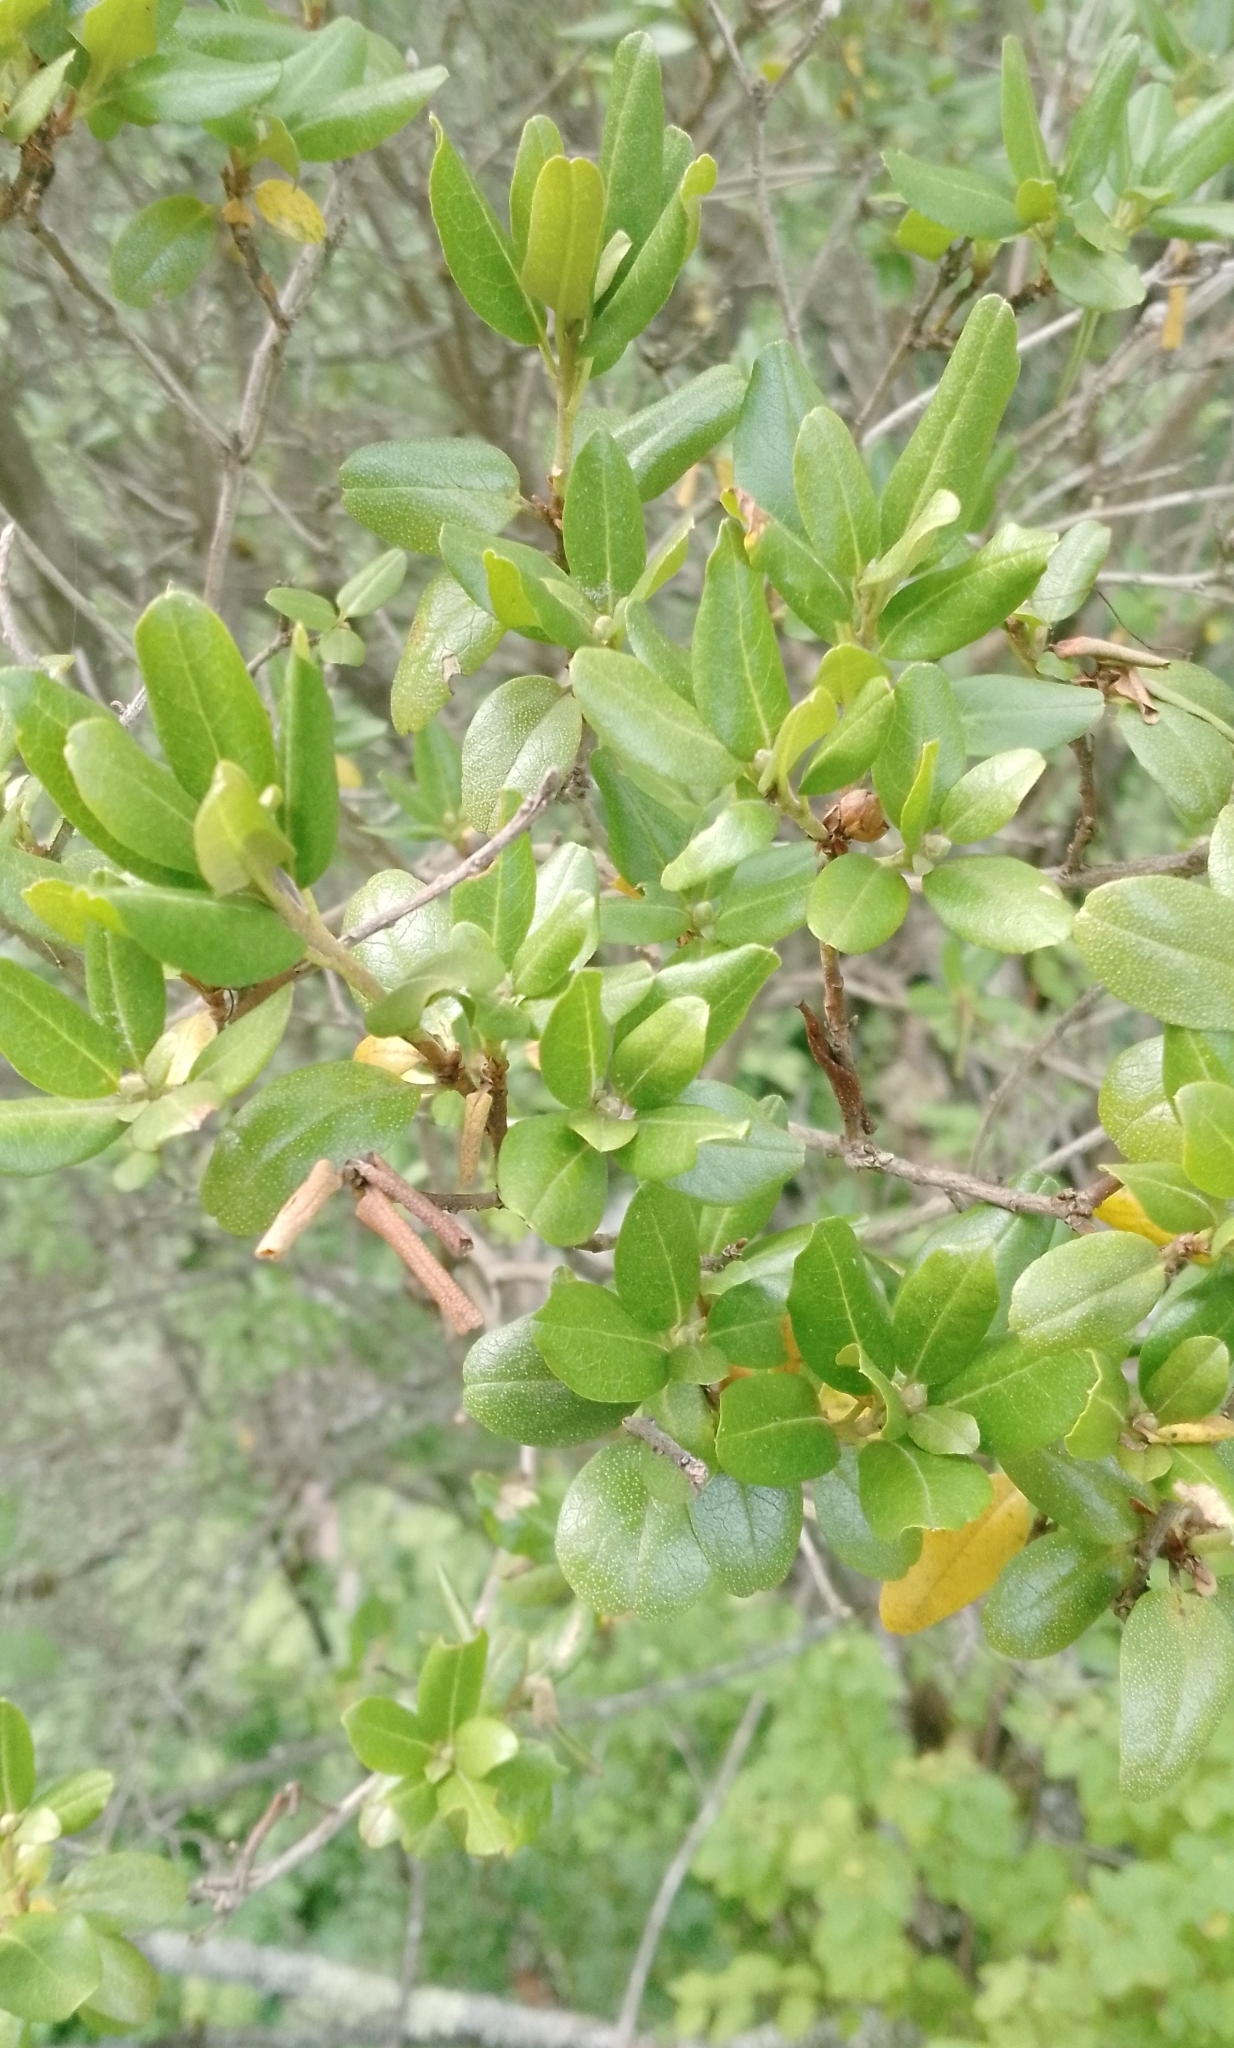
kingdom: Plantae
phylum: Tracheophyta
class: Magnoliopsida
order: Ericales
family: Ericaceae
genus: Rhododendron
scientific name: Rhododendron dauricum
